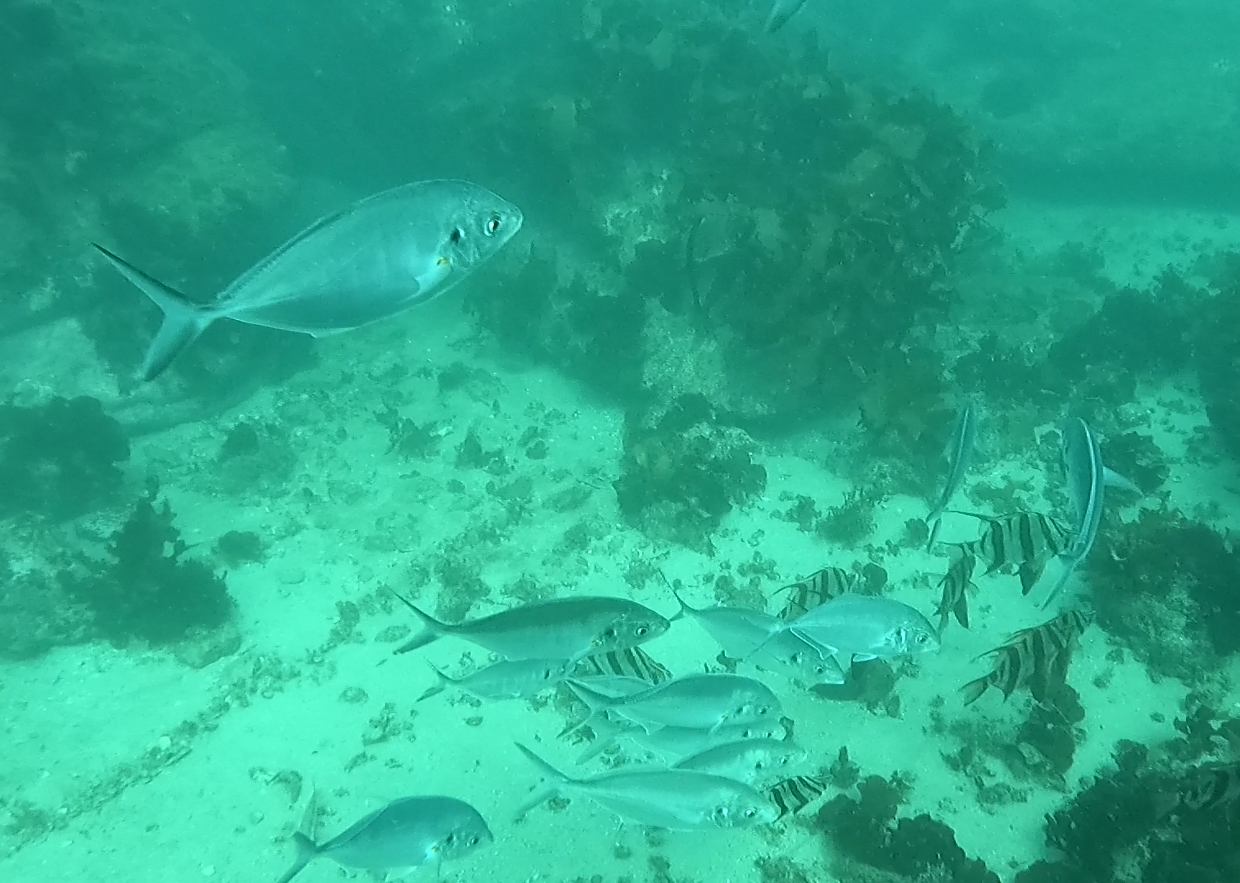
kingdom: Animalia
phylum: Chordata
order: Perciformes
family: Carangidae
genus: Pseudocaranx
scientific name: Pseudocaranx dentex
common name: White trevally
